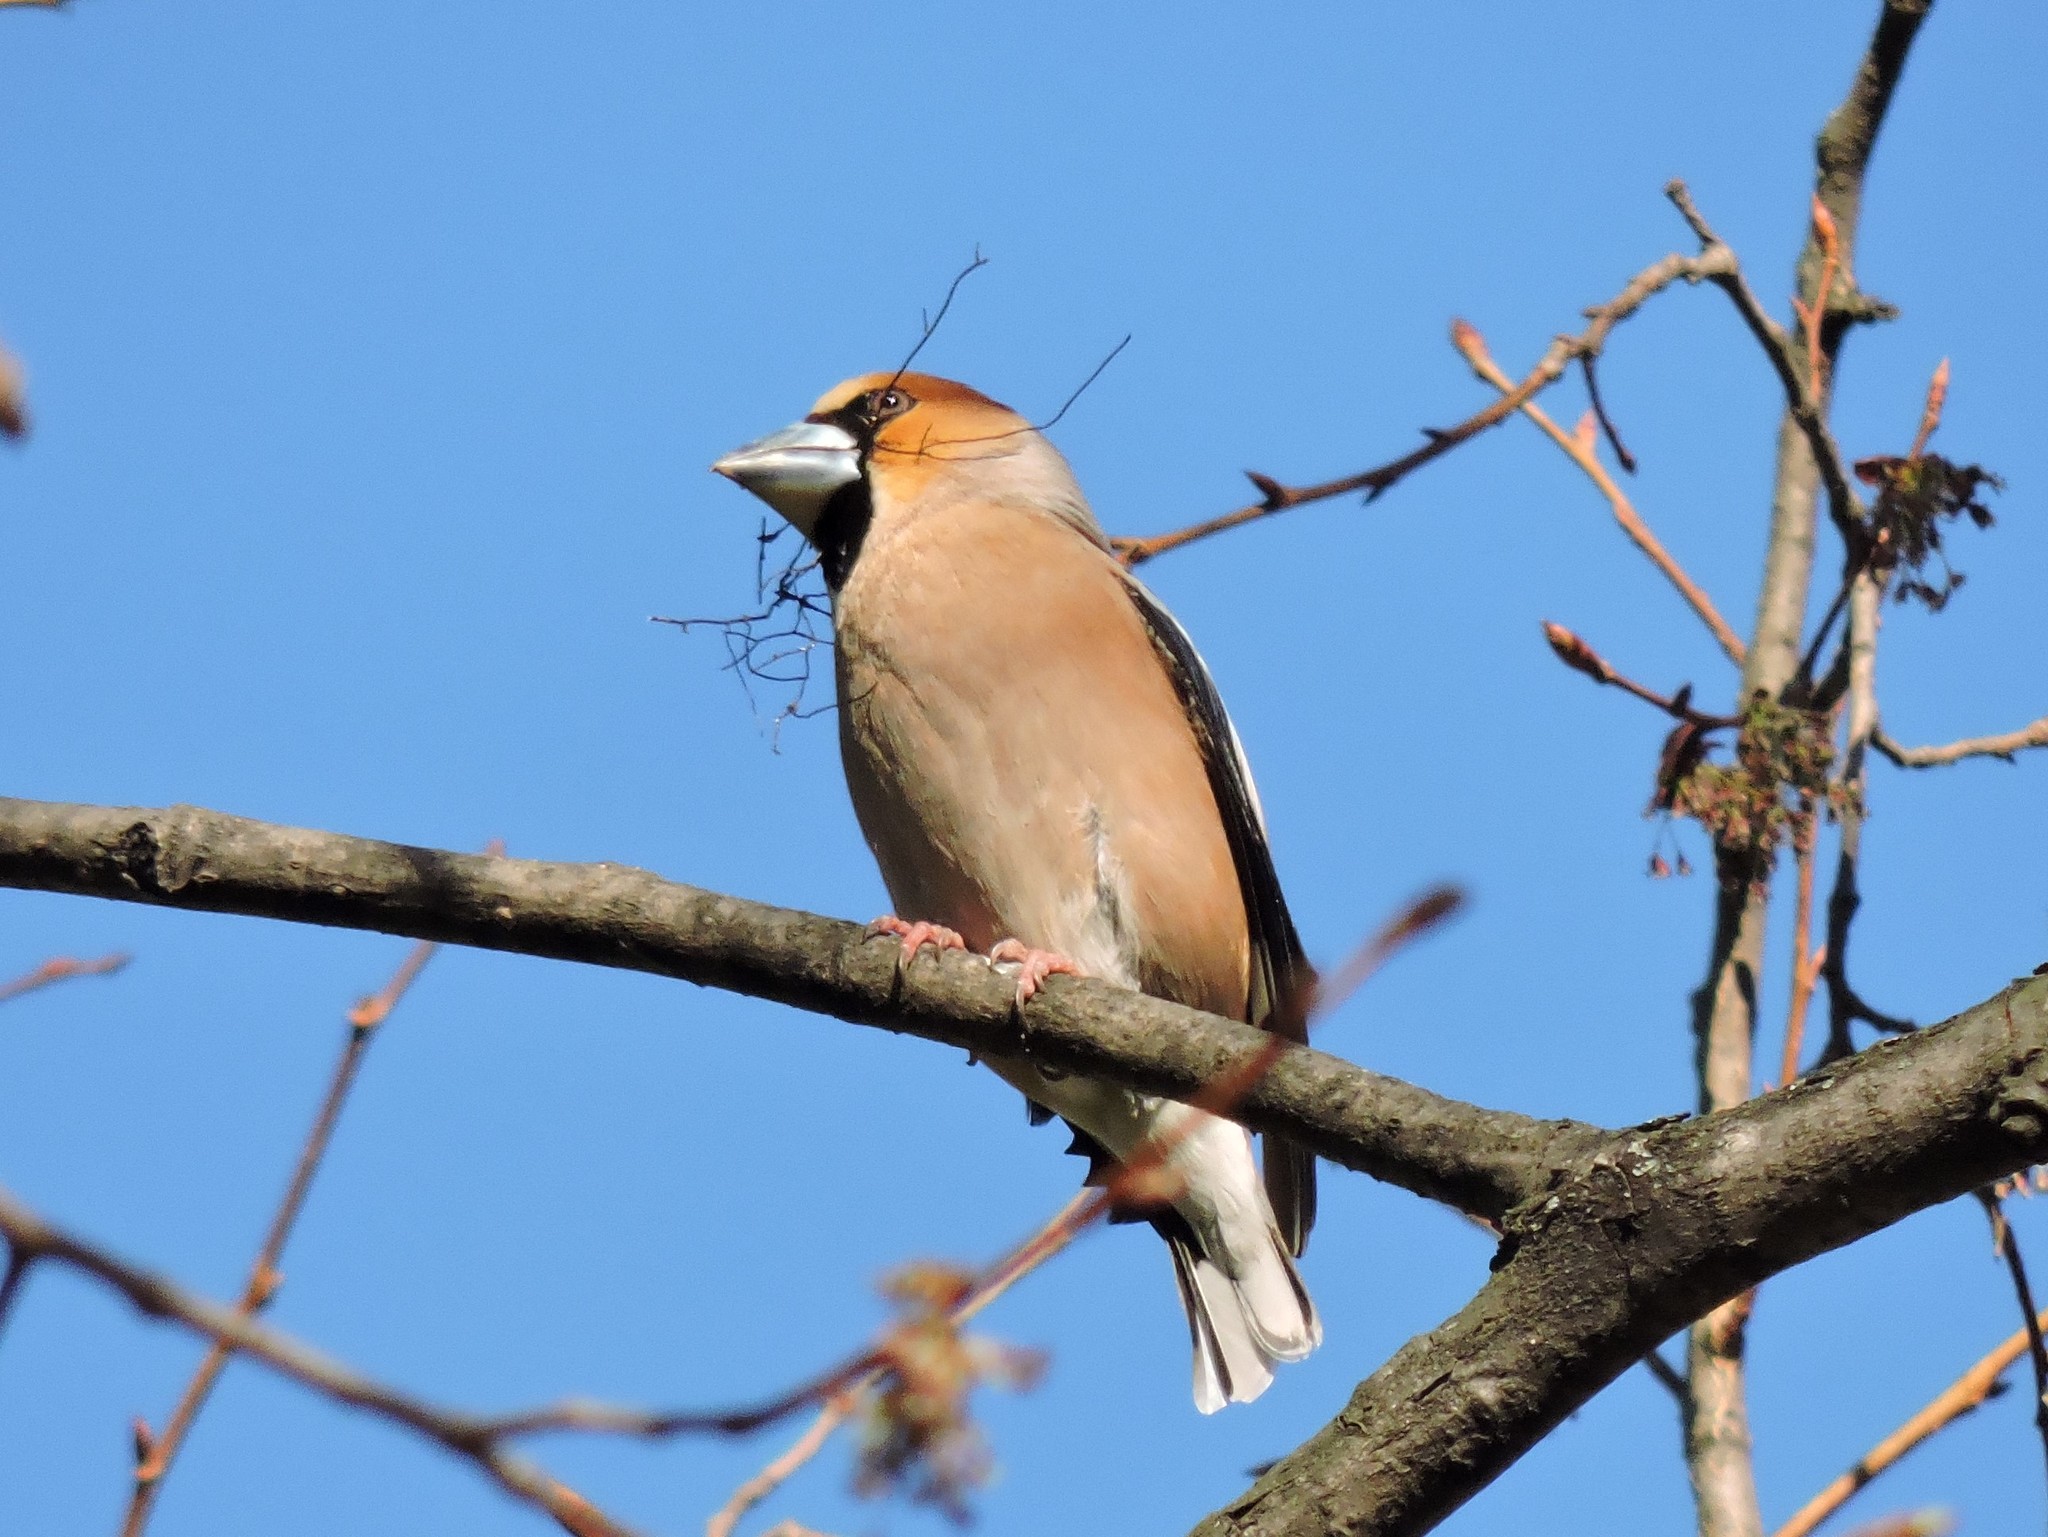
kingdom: Animalia
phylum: Chordata
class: Aves
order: Passeriformes
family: Fringillidae
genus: Coccothraustes
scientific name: Coccothraustes coccothraustes
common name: Hawfinch
